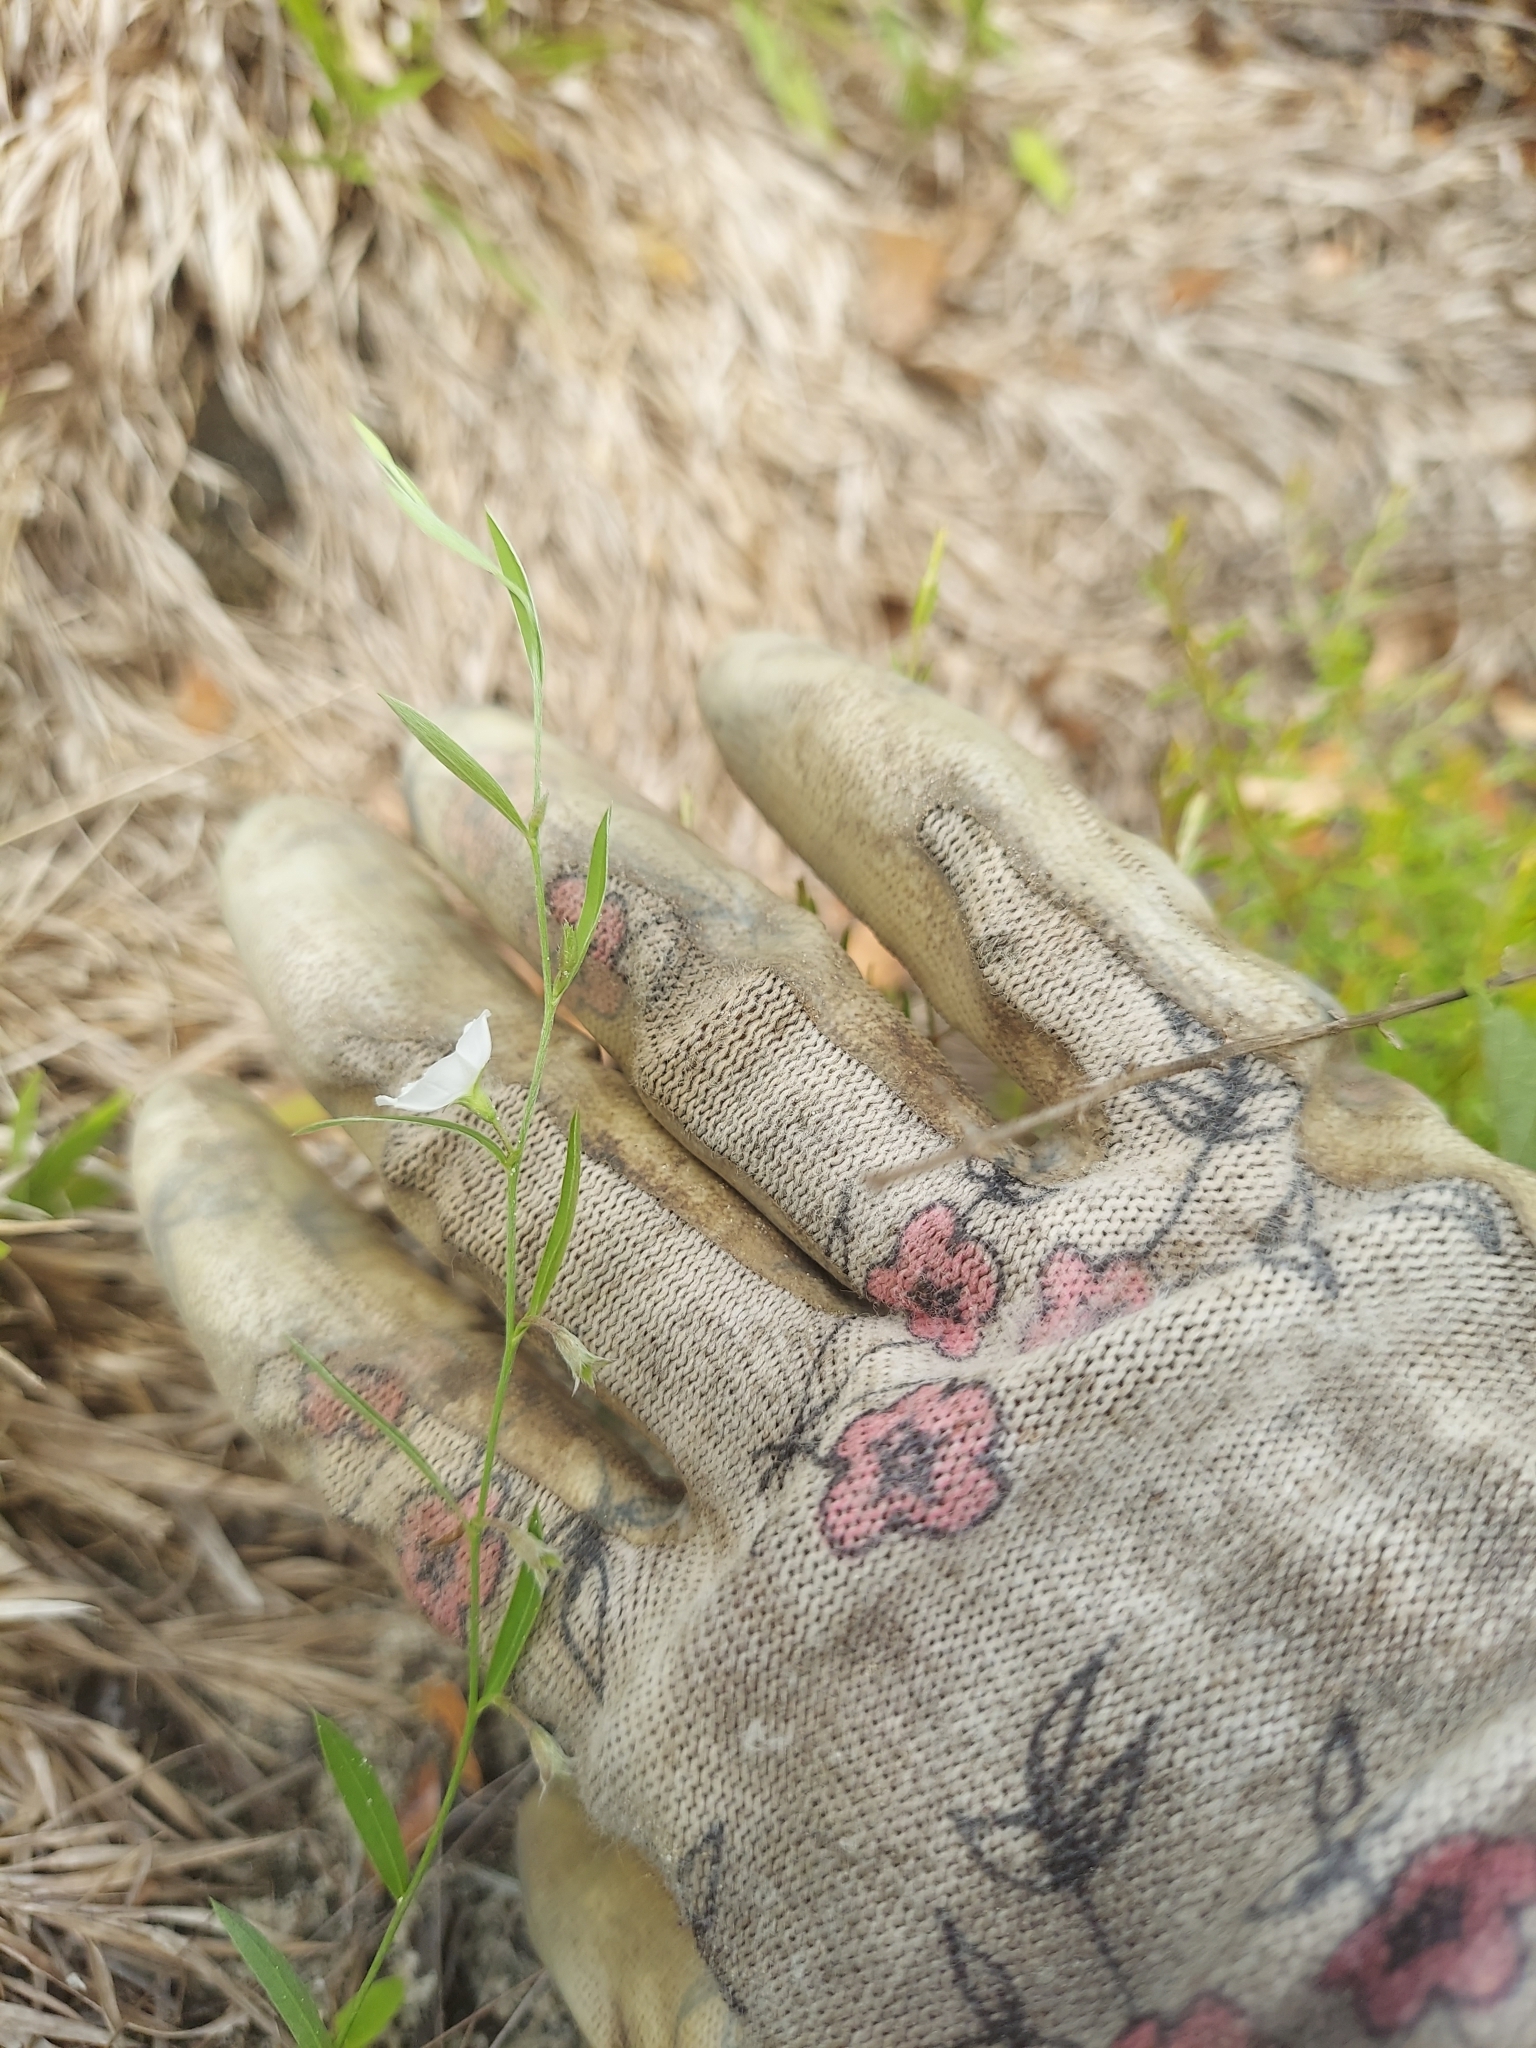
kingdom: Plantae
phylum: Tracheophyta
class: Magnoliopsida
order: Solanales
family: Convolvulaceae
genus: Evolvulus
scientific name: Evolvulus sericeus
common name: Blue dots
